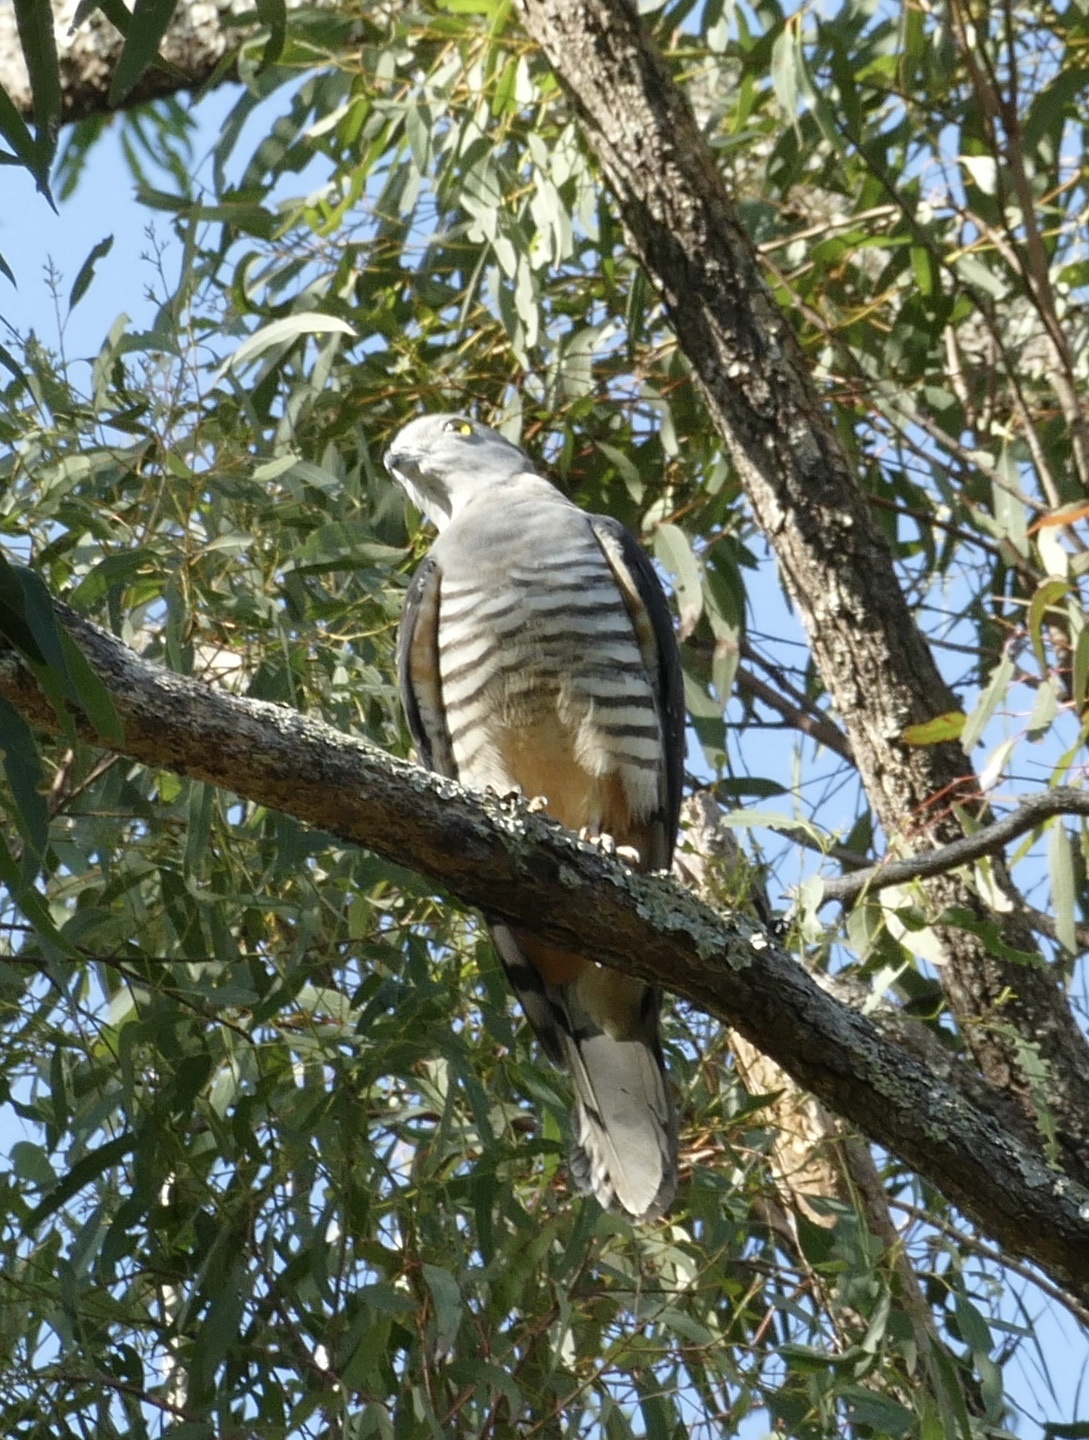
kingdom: Animalia
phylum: Chordata
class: Aves
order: Accipitriformes
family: Accipitridae
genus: Aviceda
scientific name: Aviceda subcristata
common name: Pacific baza
